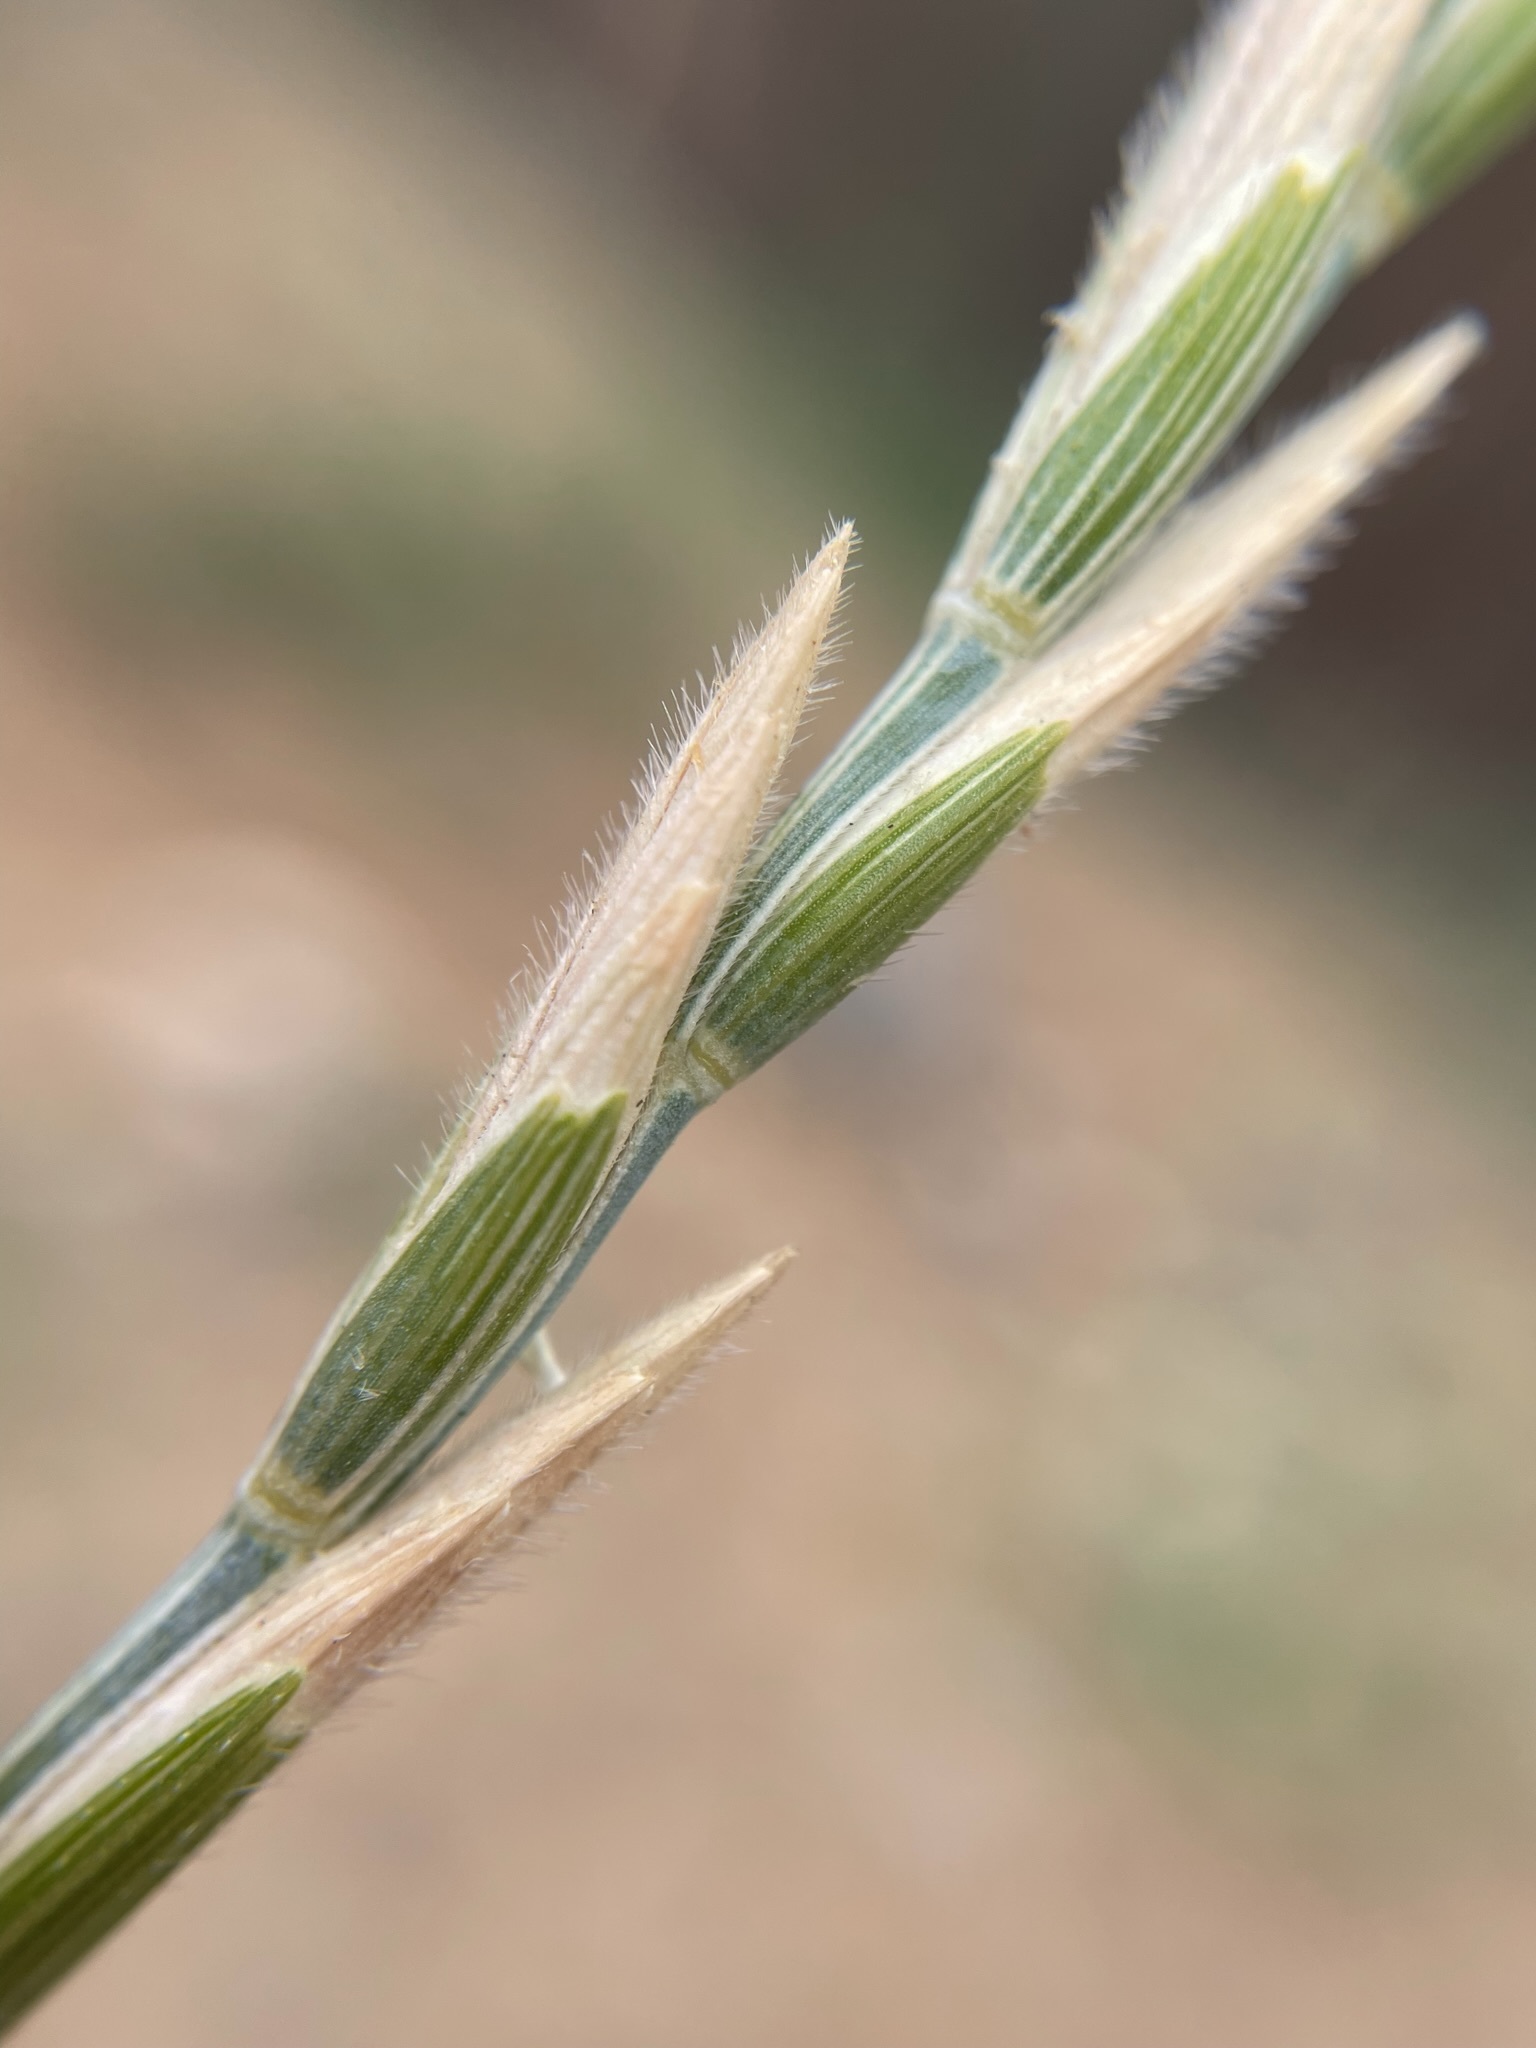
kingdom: Plantae
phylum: Tracheophyta
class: Liliopsida
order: Poales
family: Poaceae
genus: Thinopyrum
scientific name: Thinopyrum intermedium
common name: Intermediate wheatgrass
